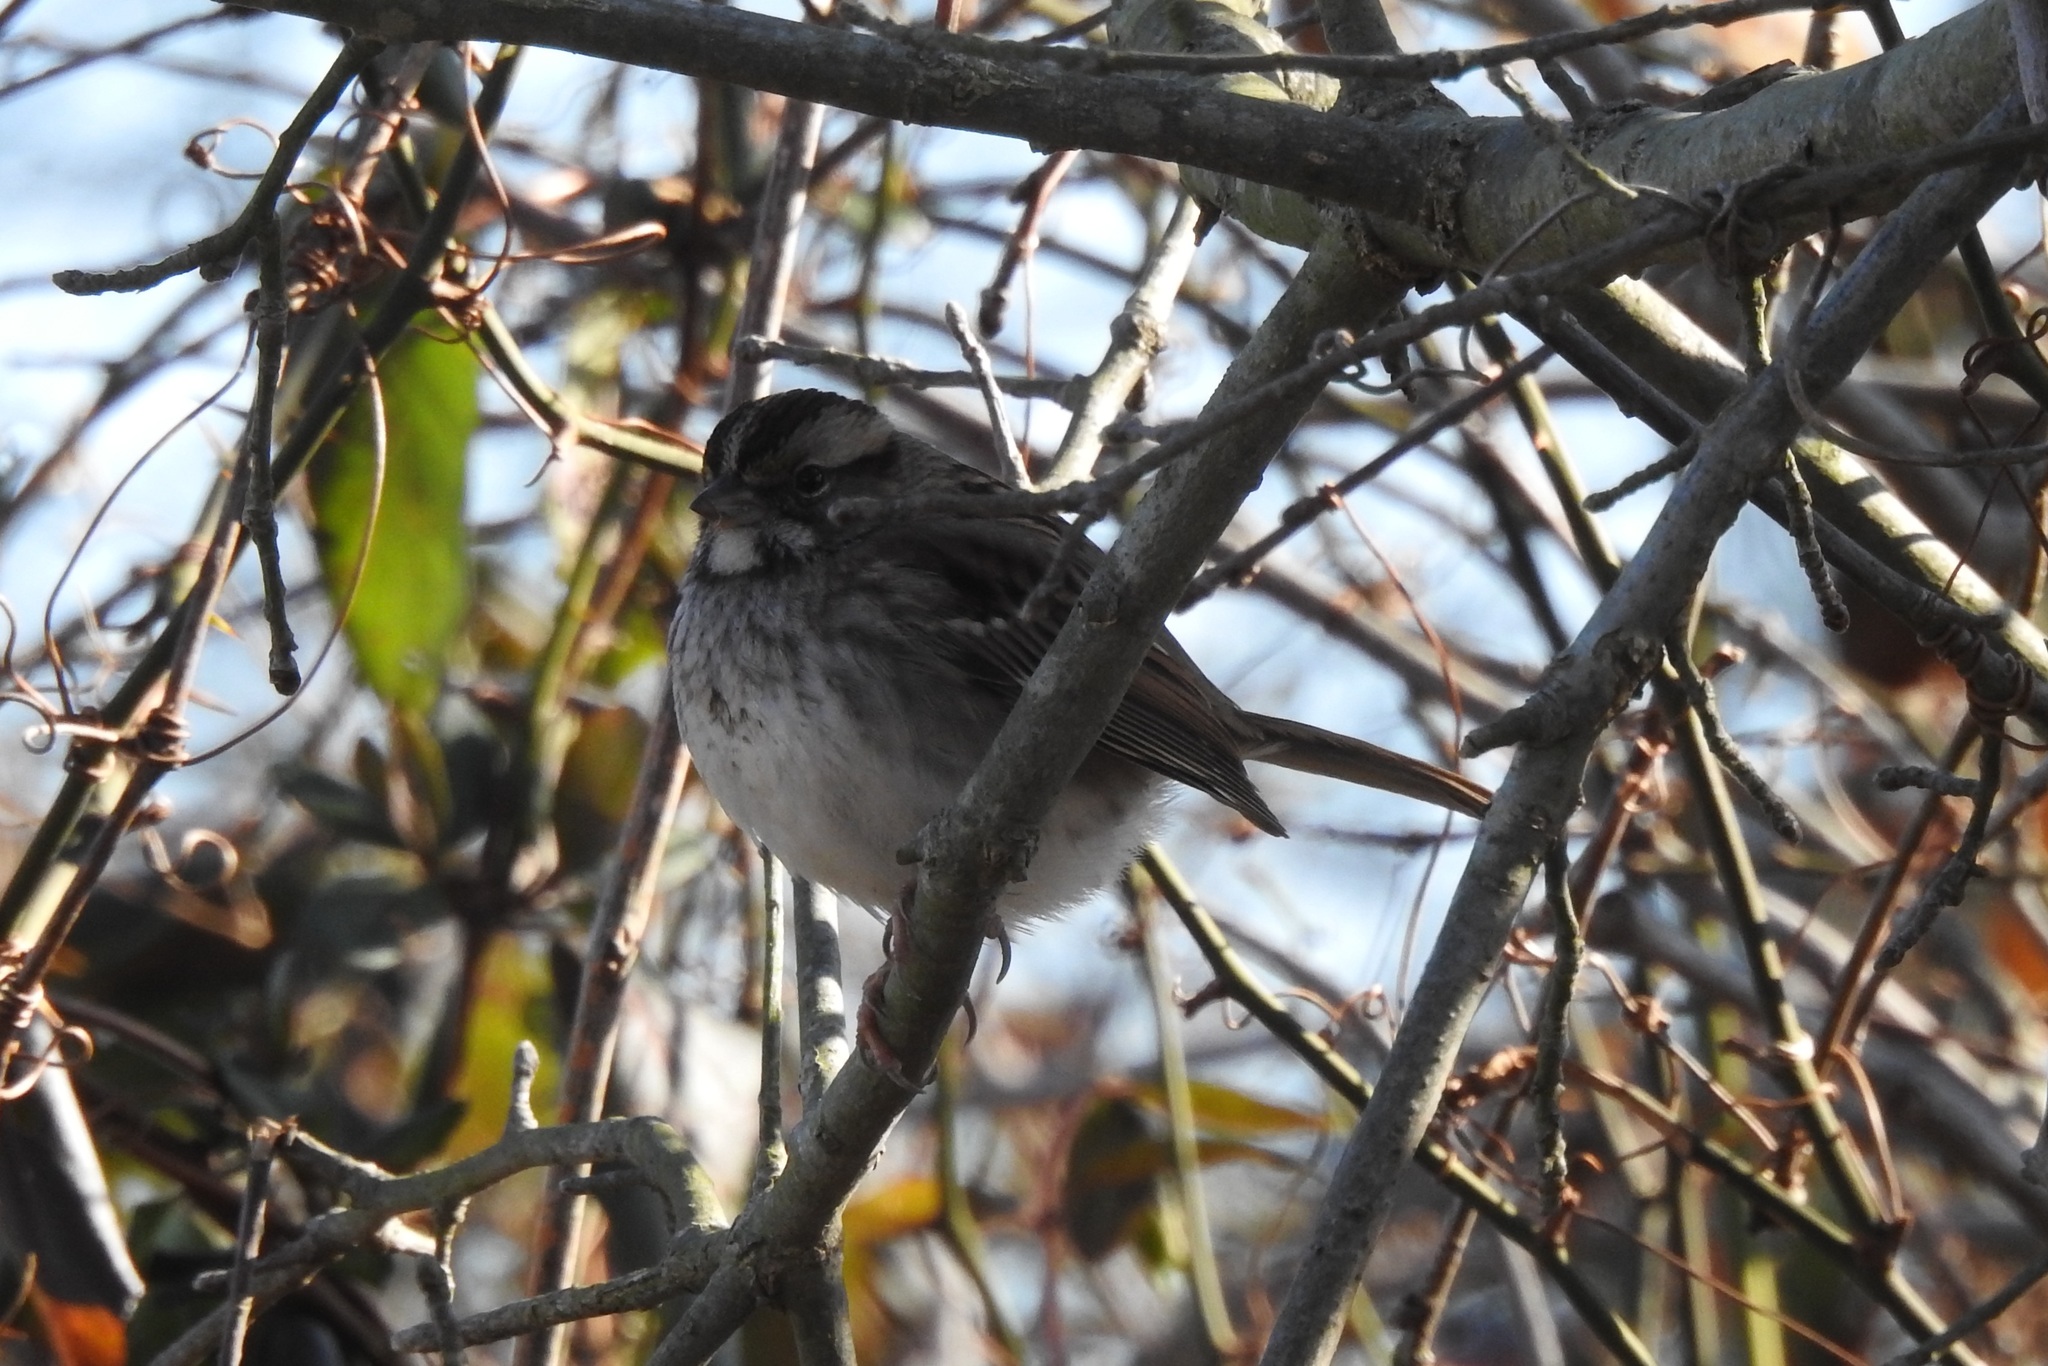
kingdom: Animalia
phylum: Chordata
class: Aves
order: Passeriformes
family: Passerellidae
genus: Zonotrichia
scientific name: Zonotrichia albicollis
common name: White-throated sparrow
